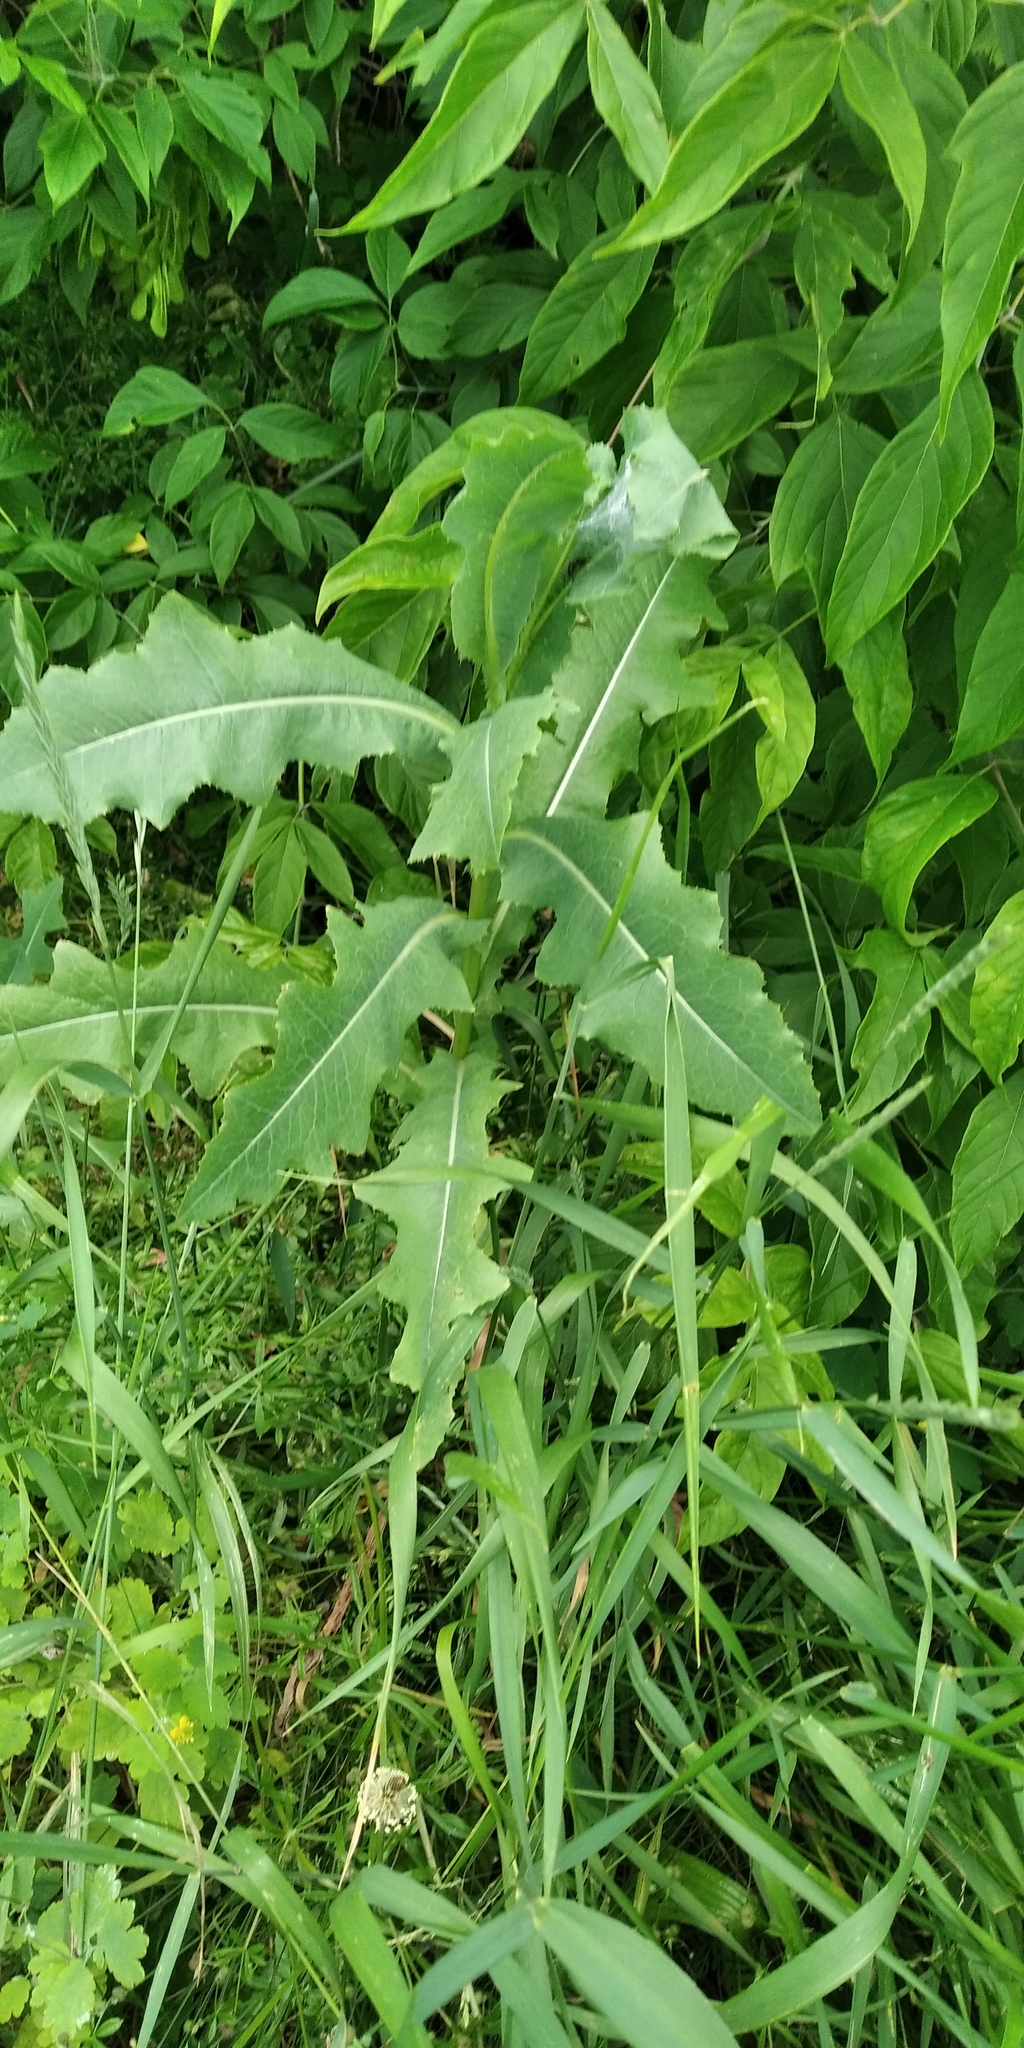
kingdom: Plantae
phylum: Tracheophyta
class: Magnoliopsida
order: Asterales
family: Asteraceae
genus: Lactuca
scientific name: Lactuca serriola
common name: Prickly lettuce
